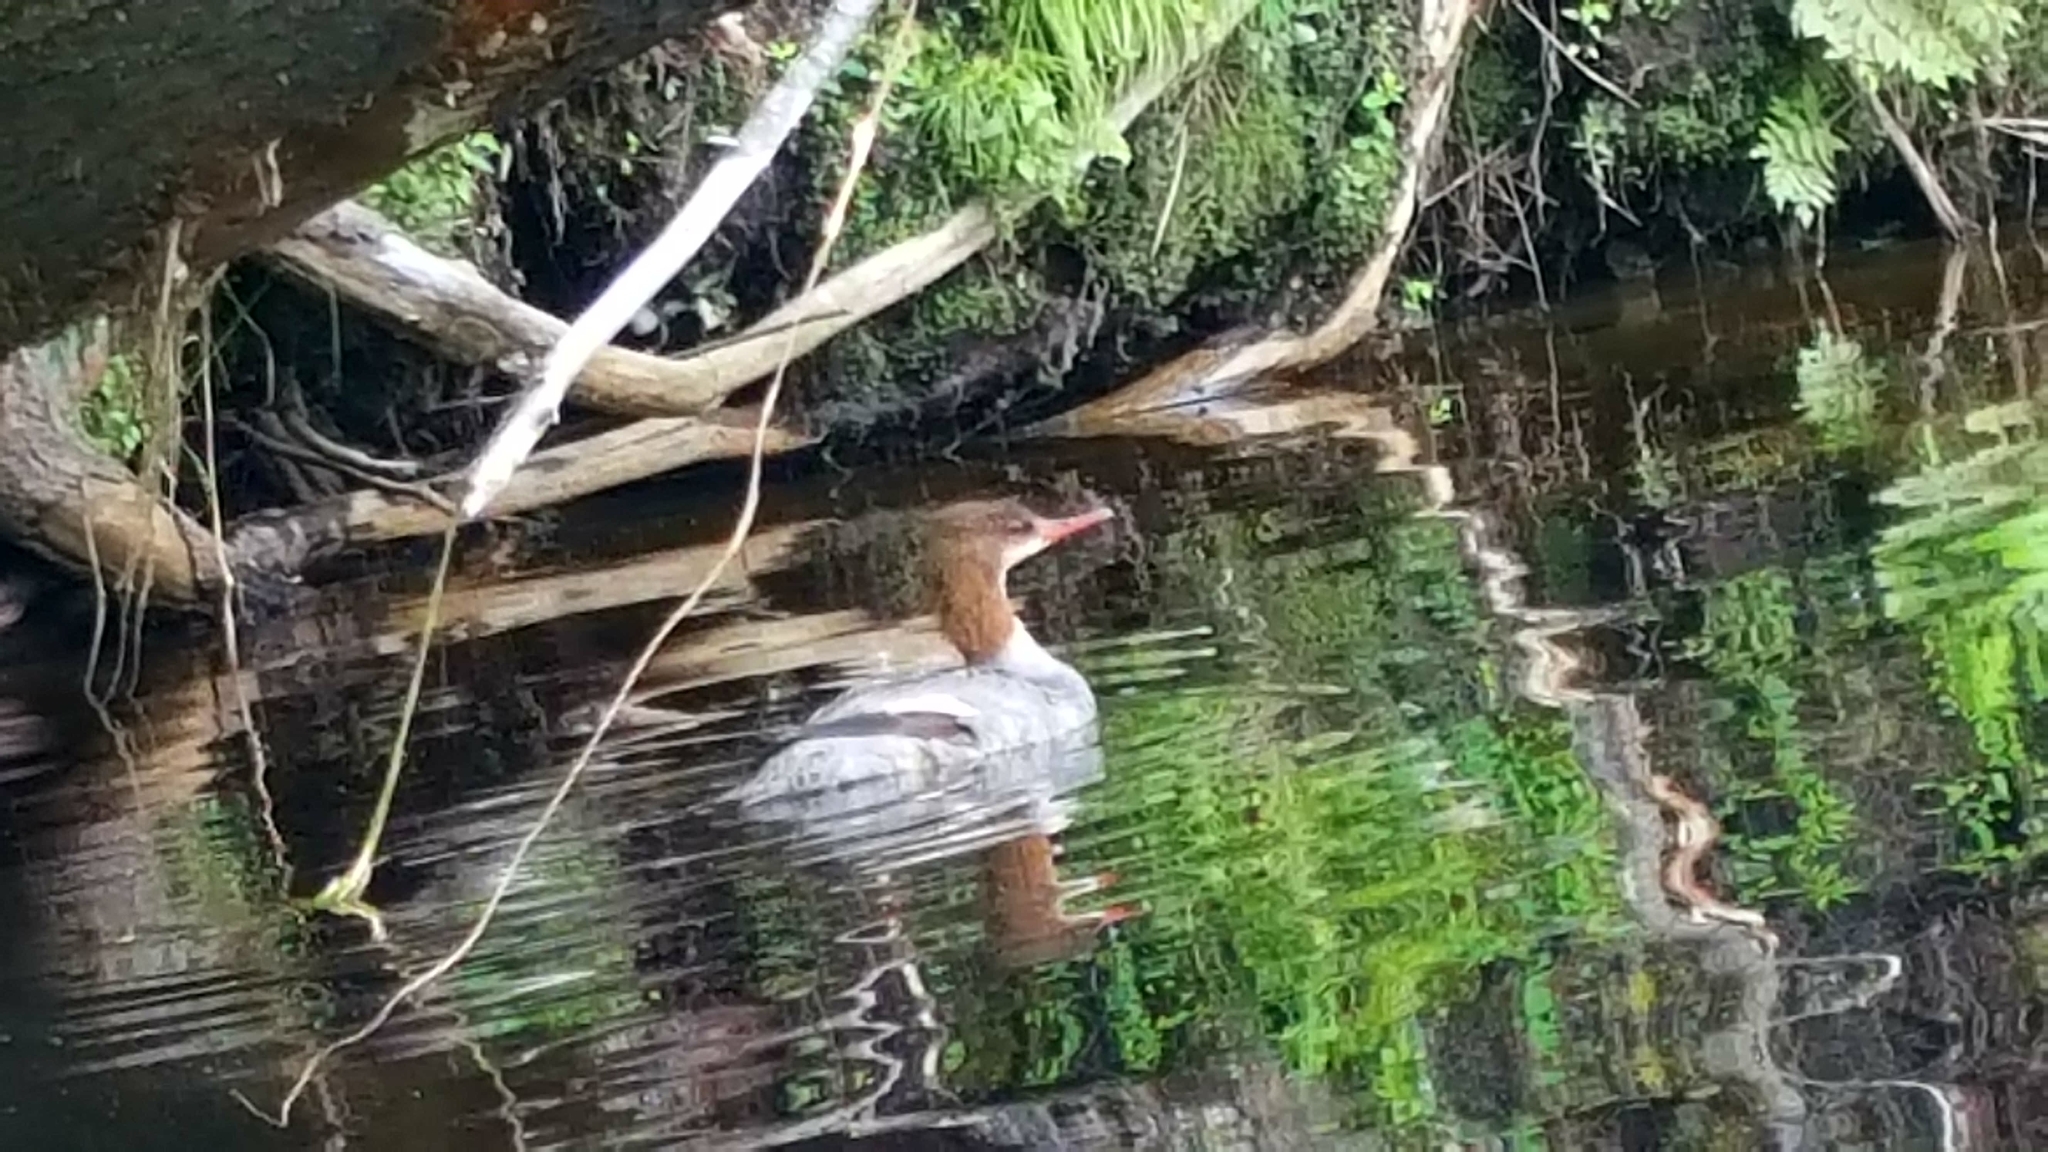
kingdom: Animalia
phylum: Chordata
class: Aves
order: Anseriformes
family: Anatidae
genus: Mergus
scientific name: Mergus merganser
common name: Common merganser
